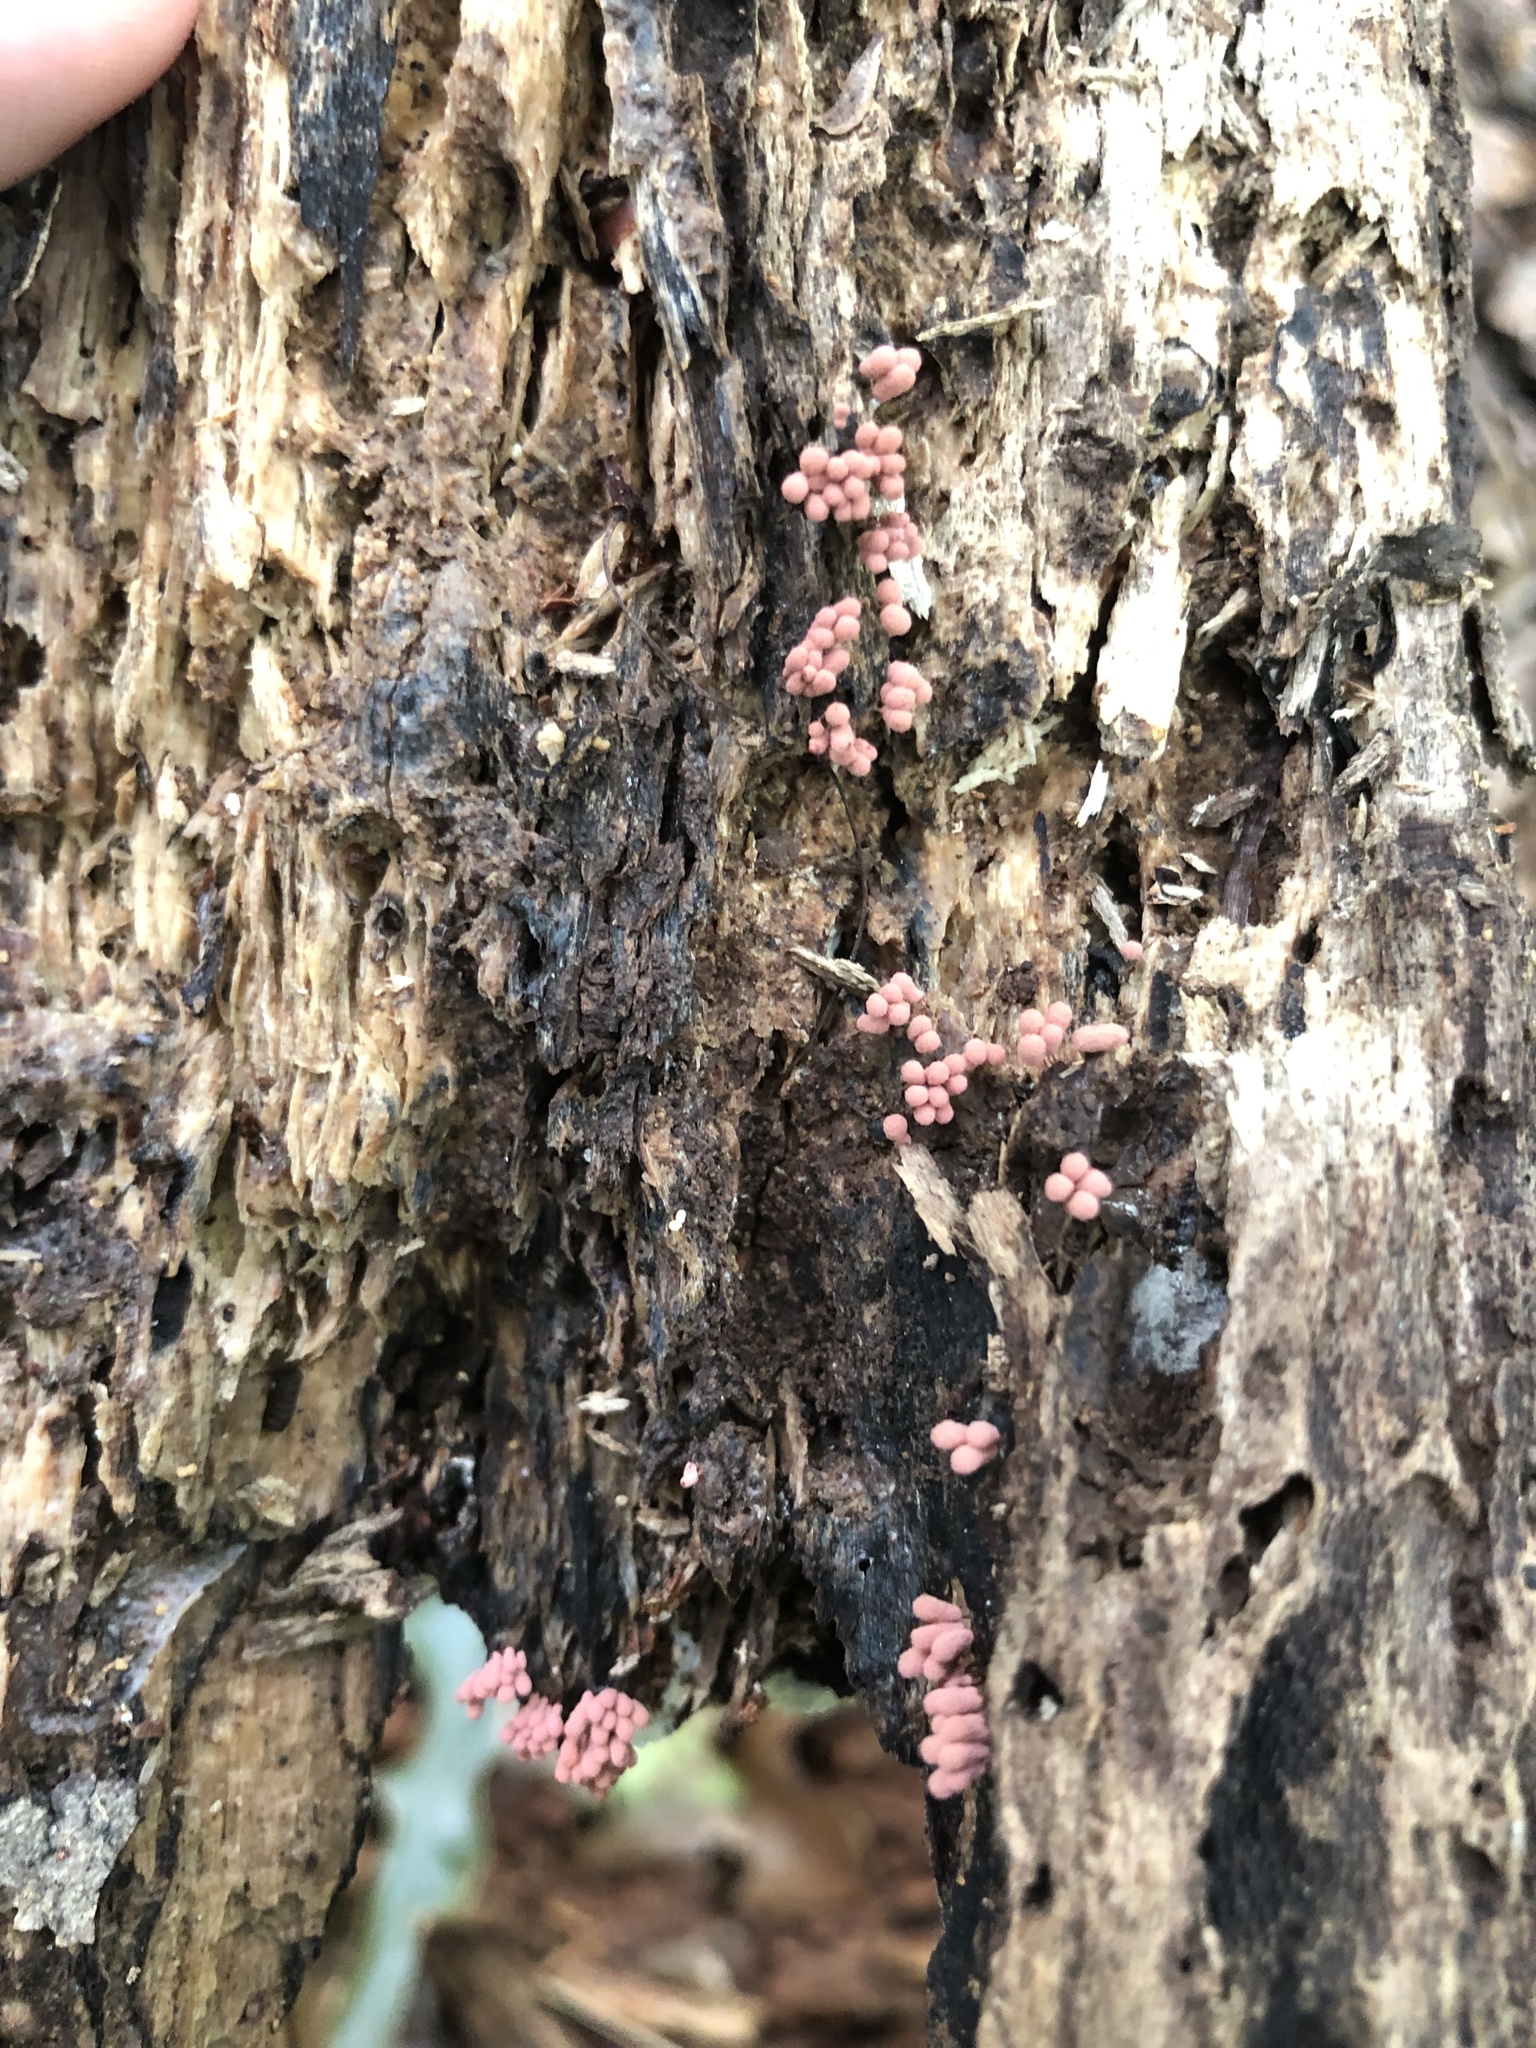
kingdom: Protozoa
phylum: Mycetozoa
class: Myxomycetes
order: Trichiales
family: Arcyriaceae
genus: Arcyria
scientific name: Arcyria denudata
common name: Carnival candy slime mold
